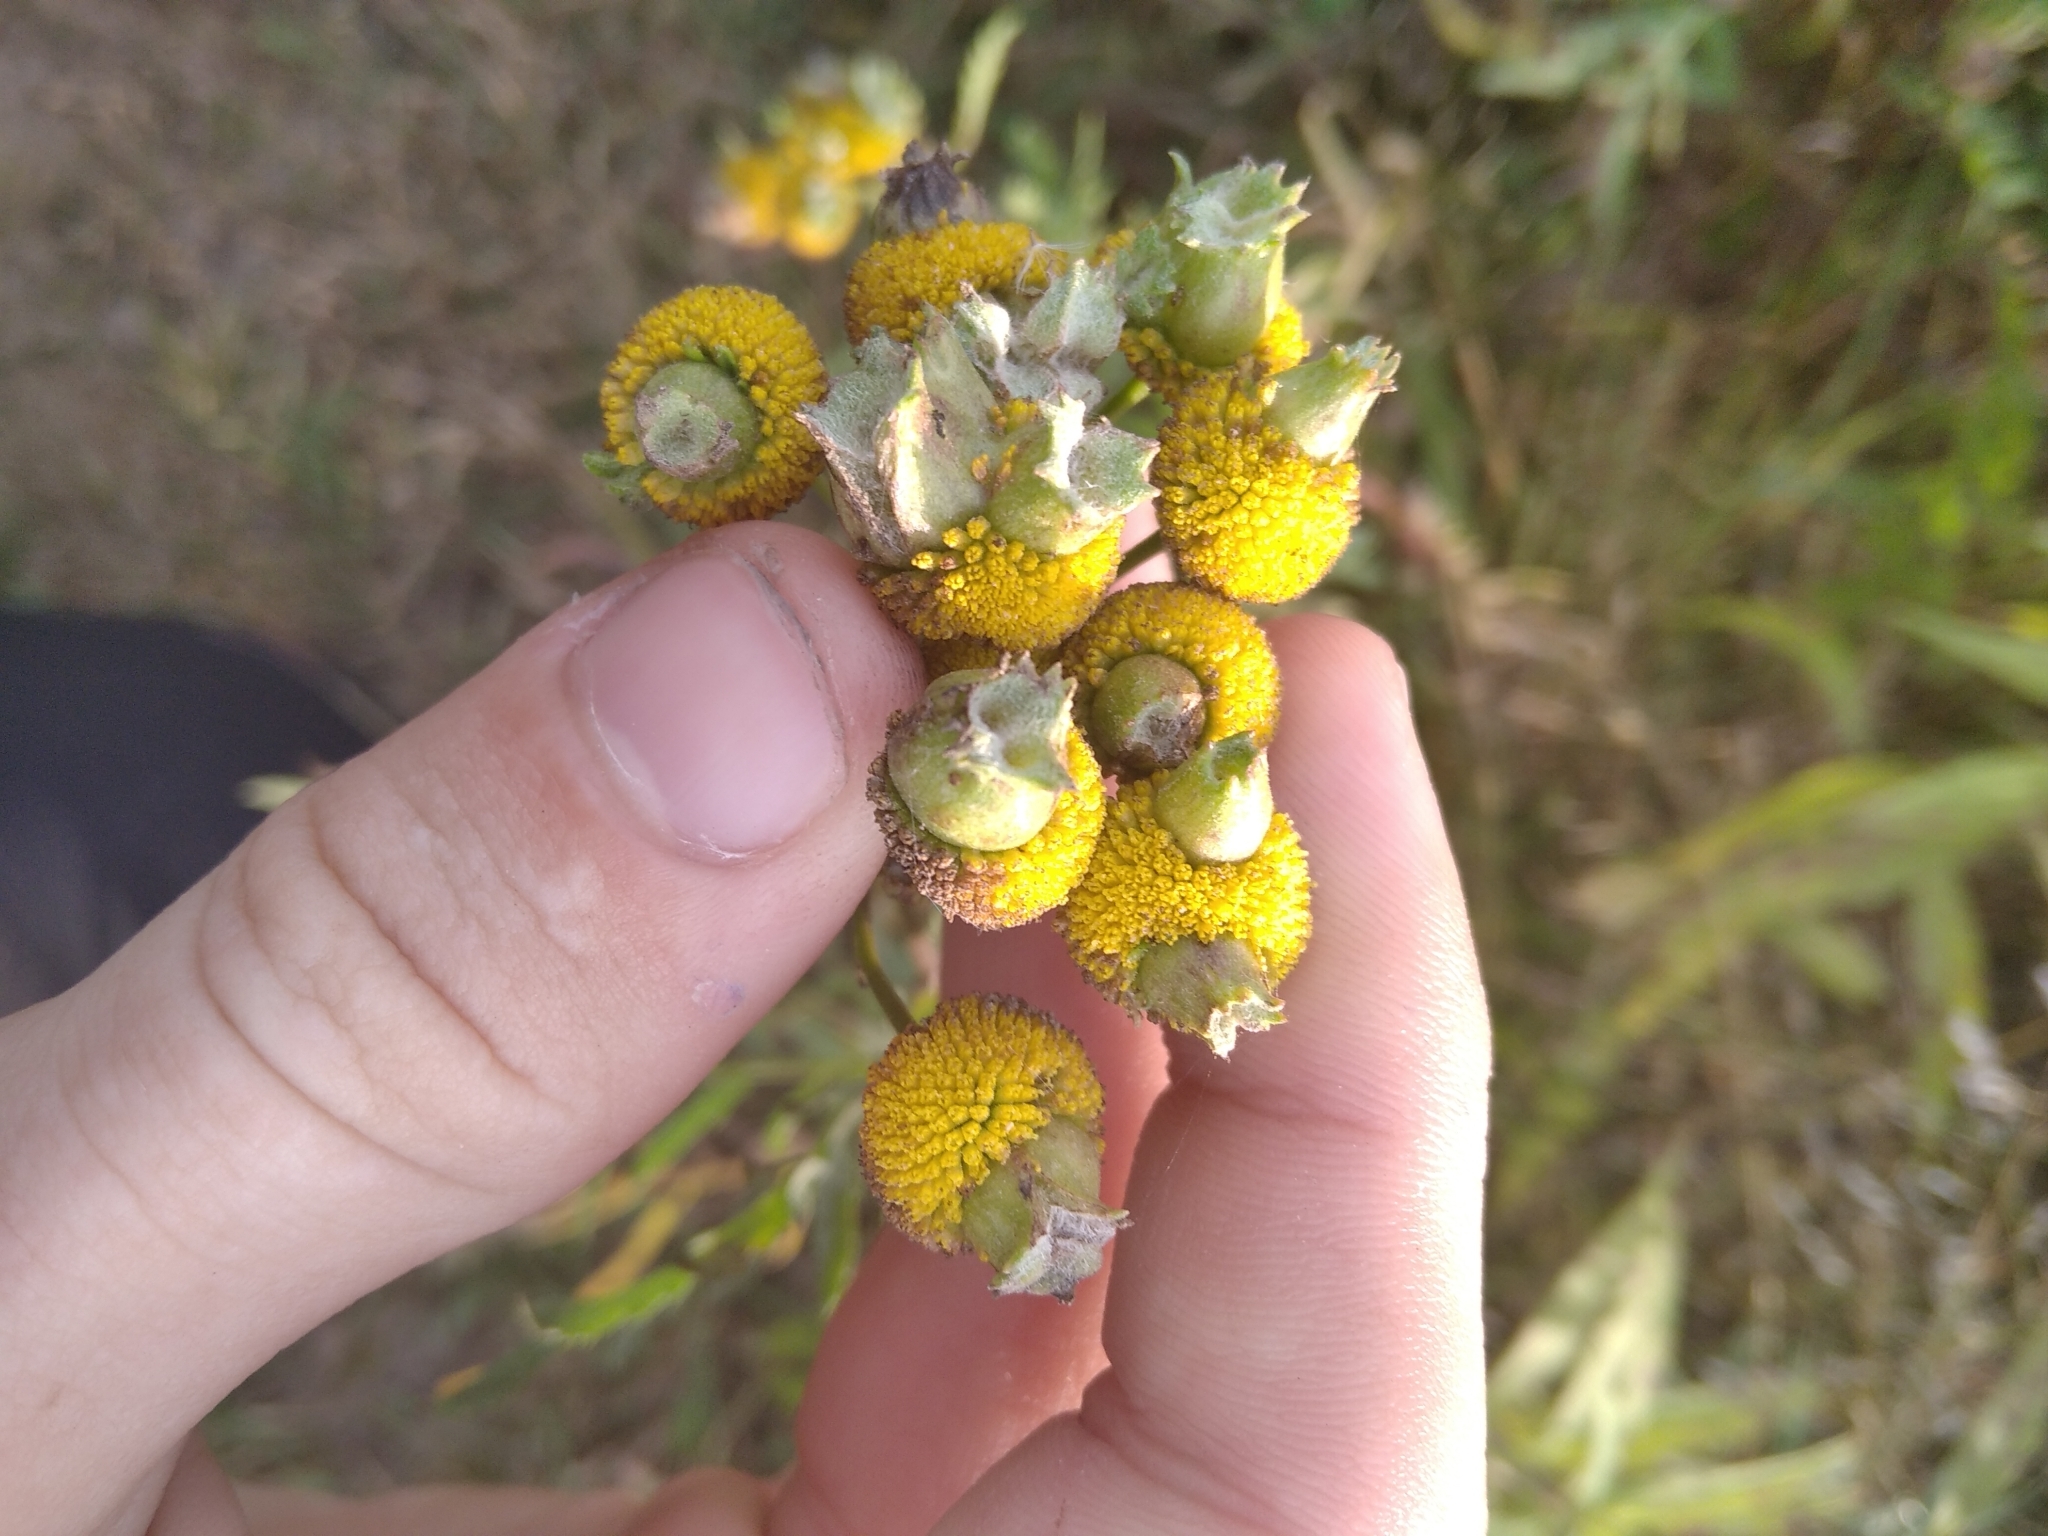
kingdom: Animalia
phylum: Arthropoda
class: Insecta
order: Diptera
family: Cecidomyiidae
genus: Rhopalomyia
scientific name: Rhopalomyia tanaceticolus
